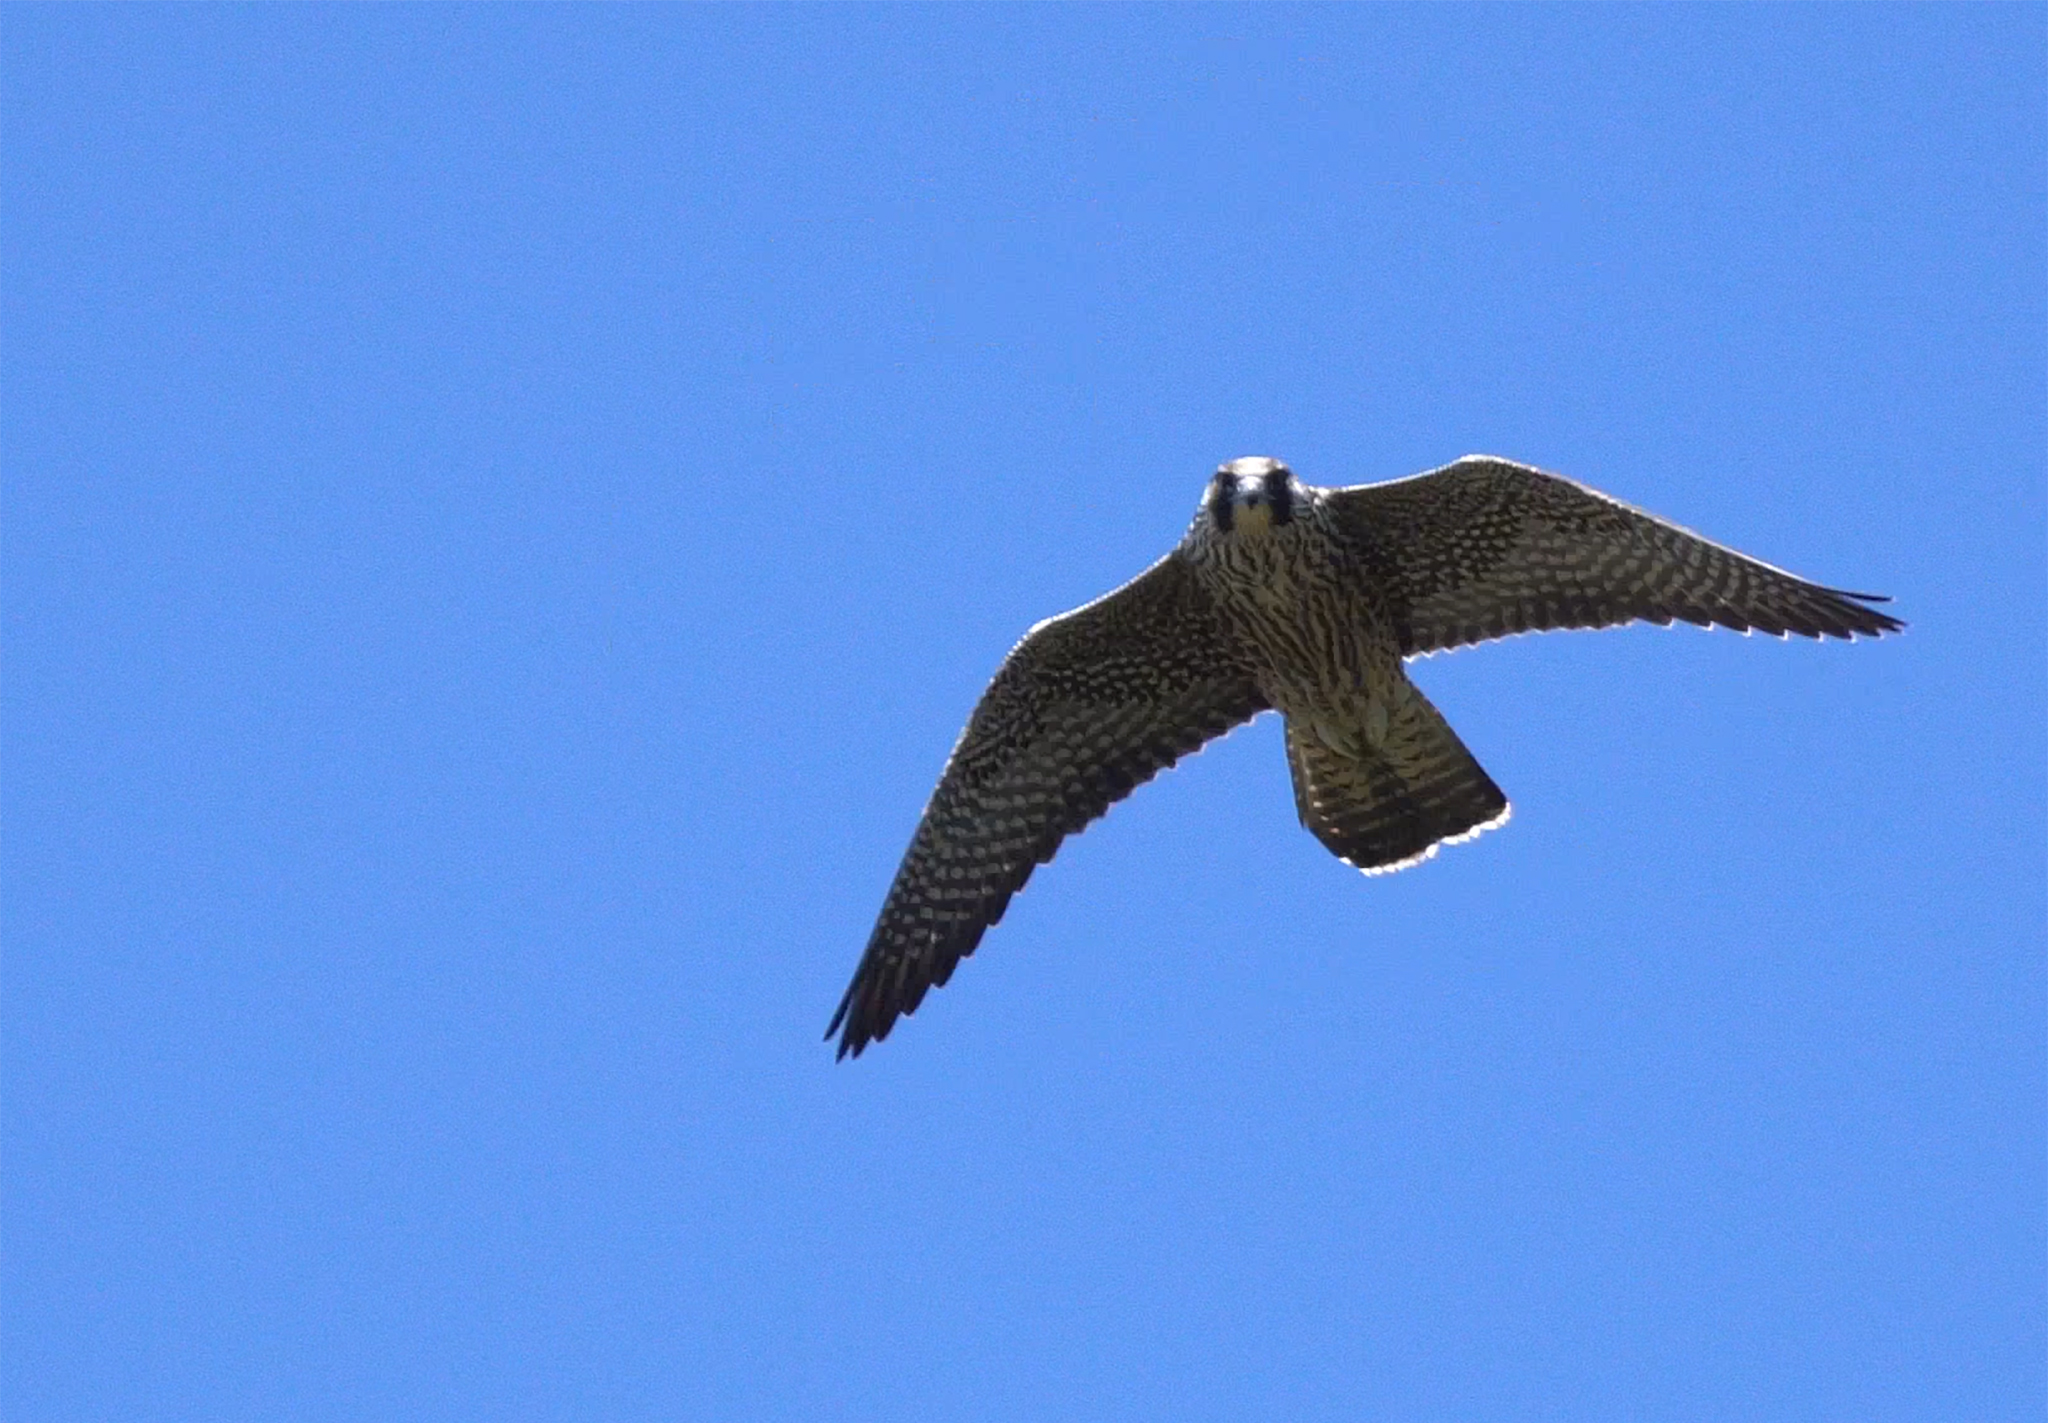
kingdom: Animalia
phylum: Chordata
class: Aves
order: Falconiformes
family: Falconidae
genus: Falco
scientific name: Falco peregrinus
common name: Peregrine falcon
